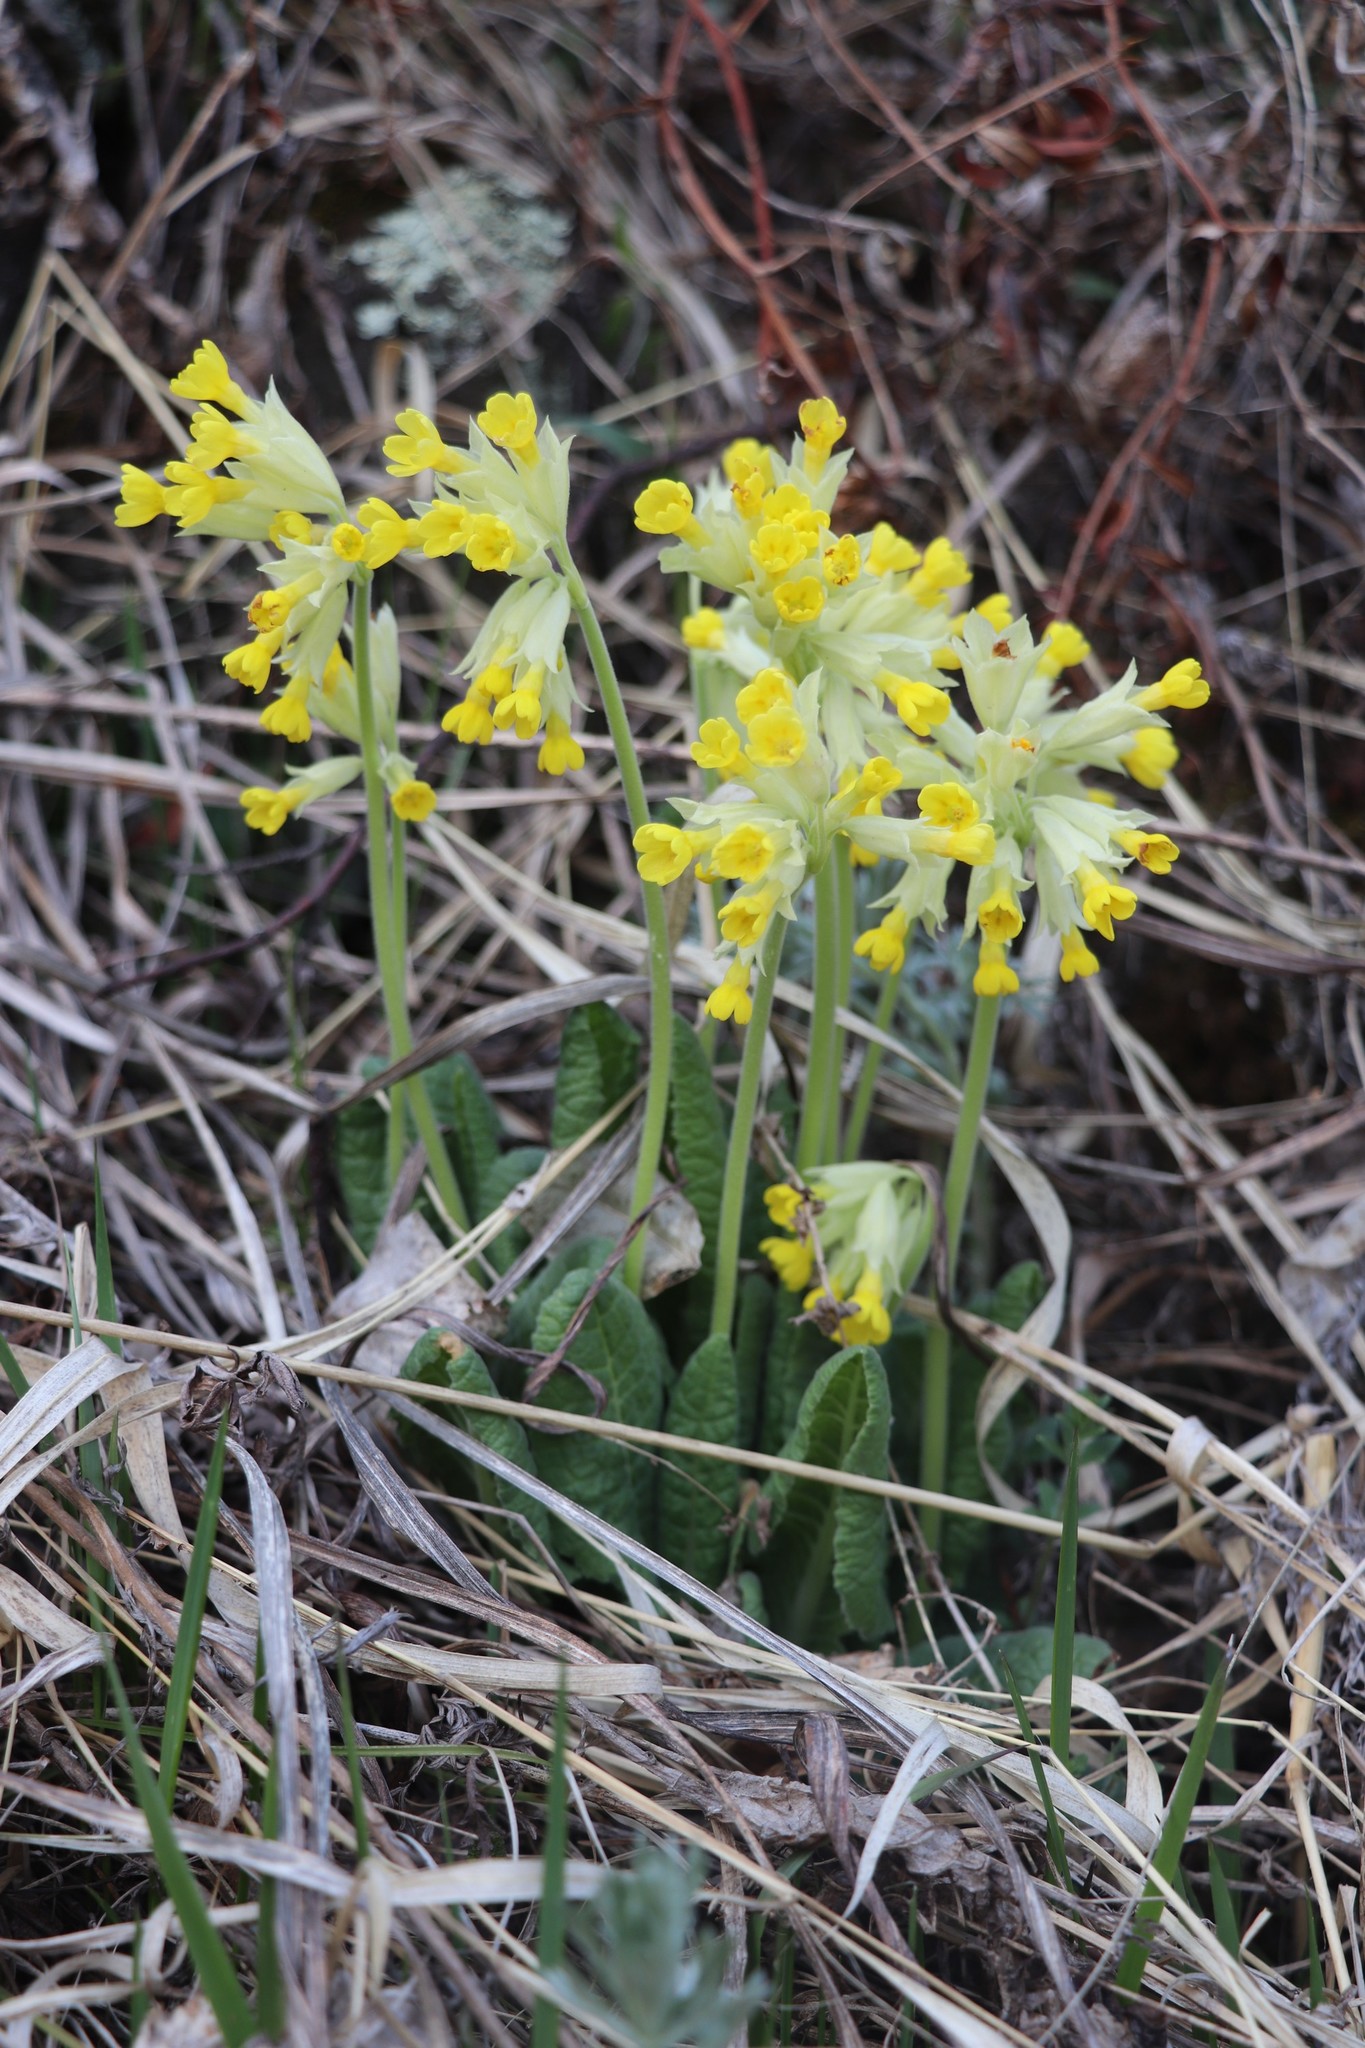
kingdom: Plantae
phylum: Tracheophyta
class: Magnoliopsida
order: Ericales
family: Primulaceae
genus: Primula
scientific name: Primula veris
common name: Cowslip
